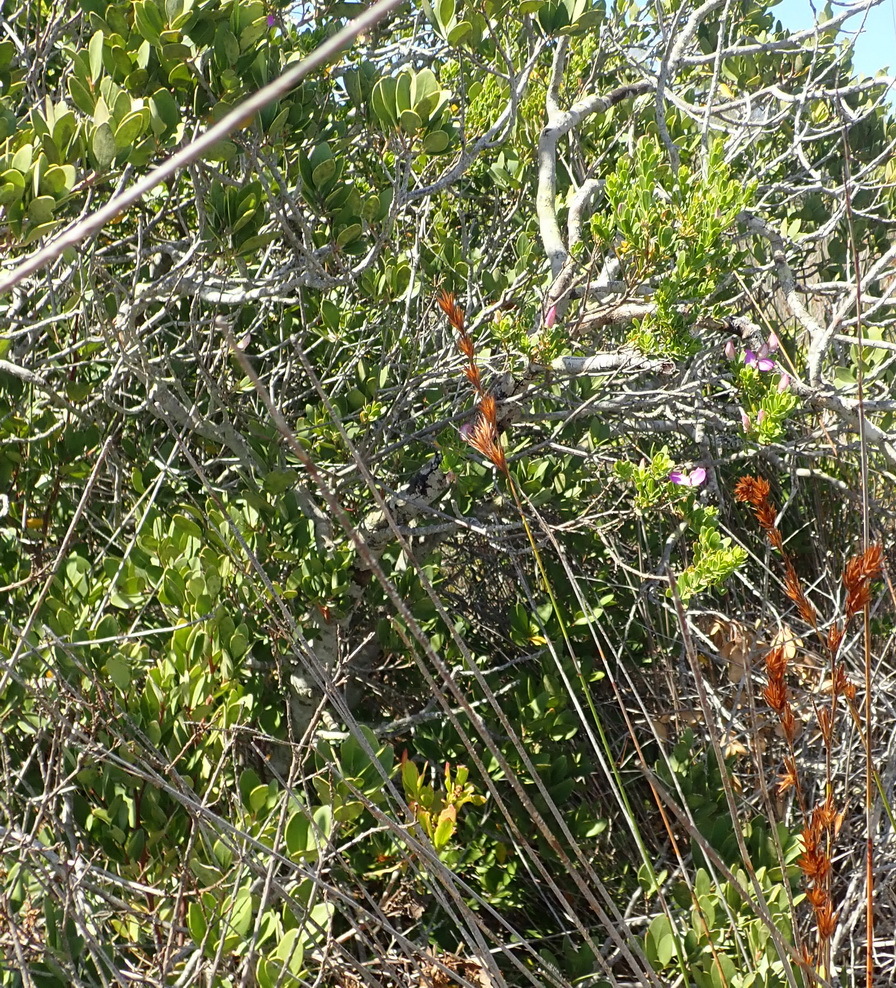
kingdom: Plantae
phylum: Tracheophyta
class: Magnoliopsida
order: Fabales
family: Polygalaceae
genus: Polygala
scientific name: Polygala myrtifolia
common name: Myrtle-leaf milkwort
